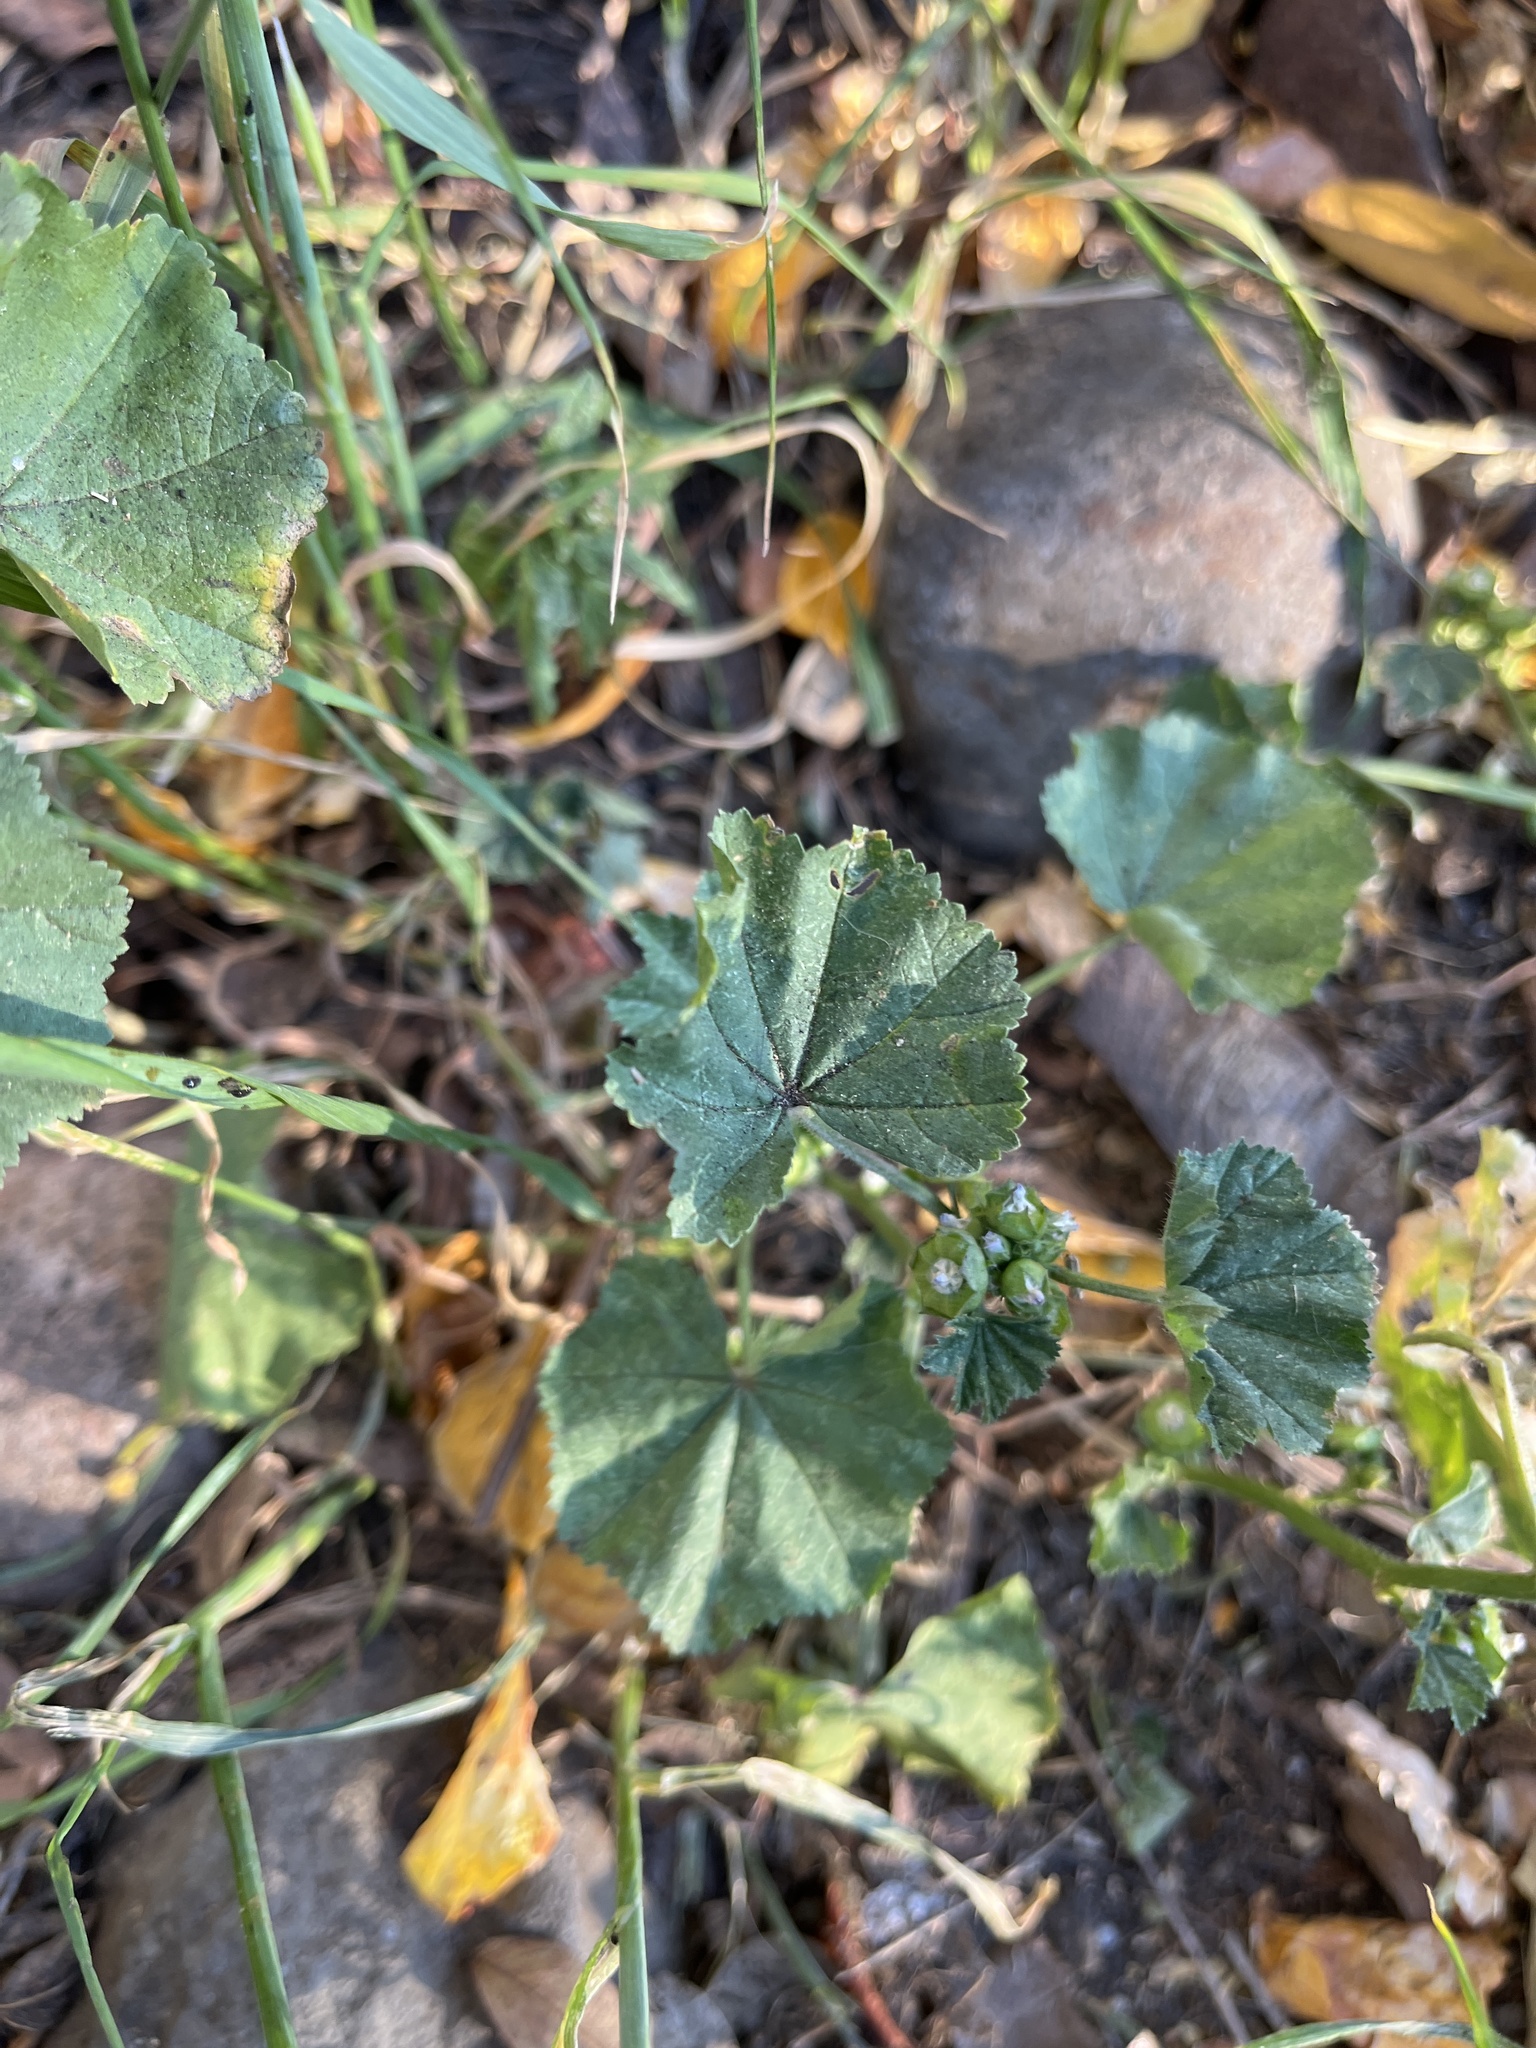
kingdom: Plantae
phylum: Tracheophyta
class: Magnoliopsida
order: Malvales
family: Malvaceae
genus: Malva
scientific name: Malva parviflora
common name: Least mallow
